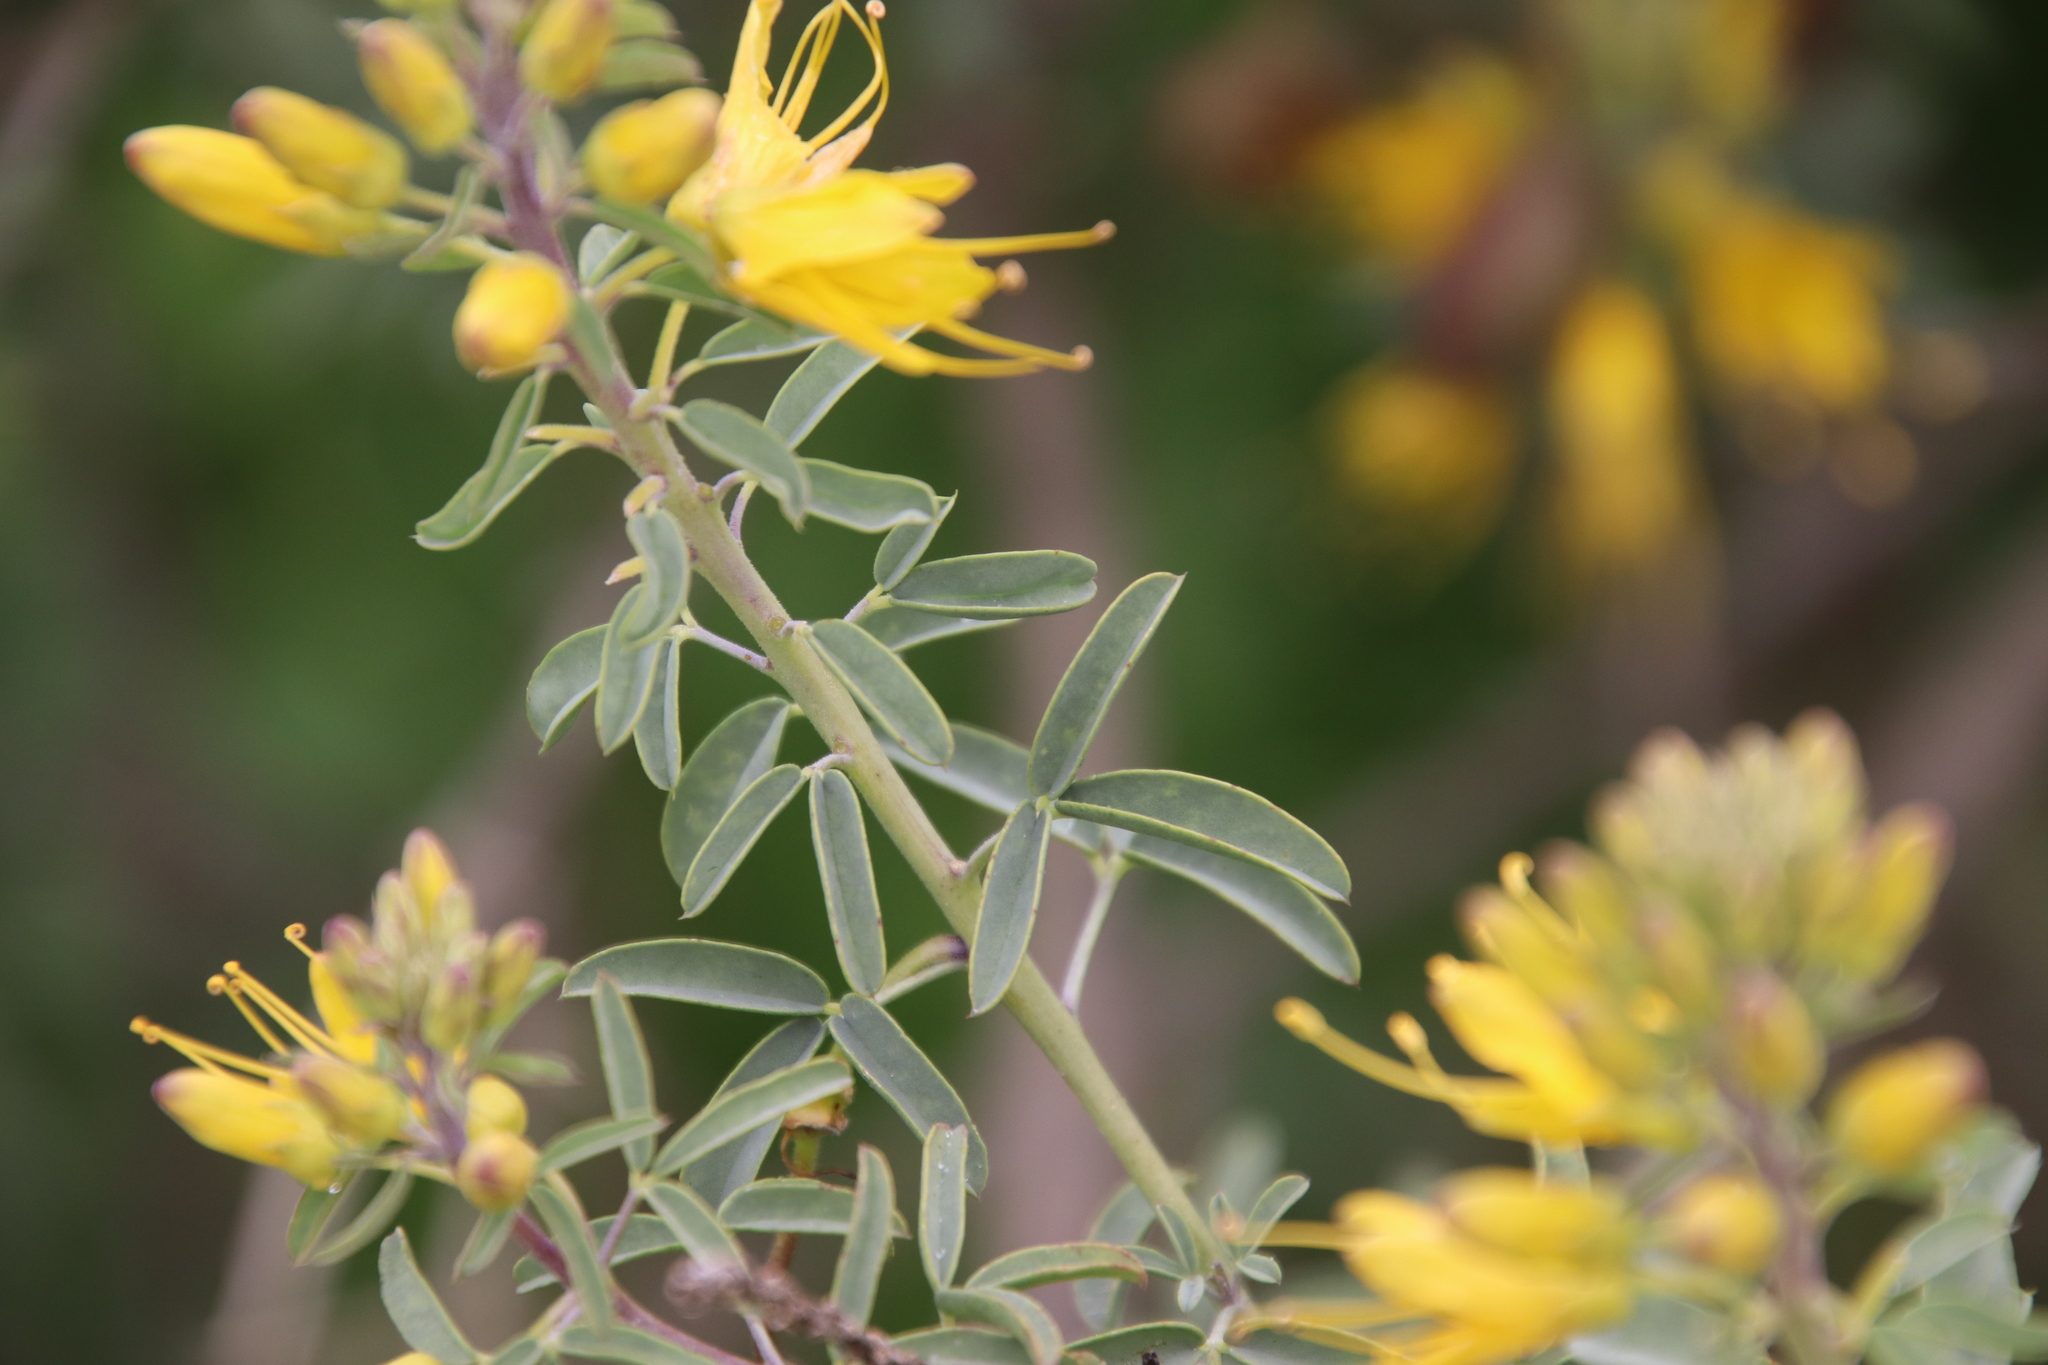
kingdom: Plantae
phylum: Tracheophyta
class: Magnoliopsida
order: Brassicales
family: Cleomaceae
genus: Cleomella
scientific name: Cleomella arborea
